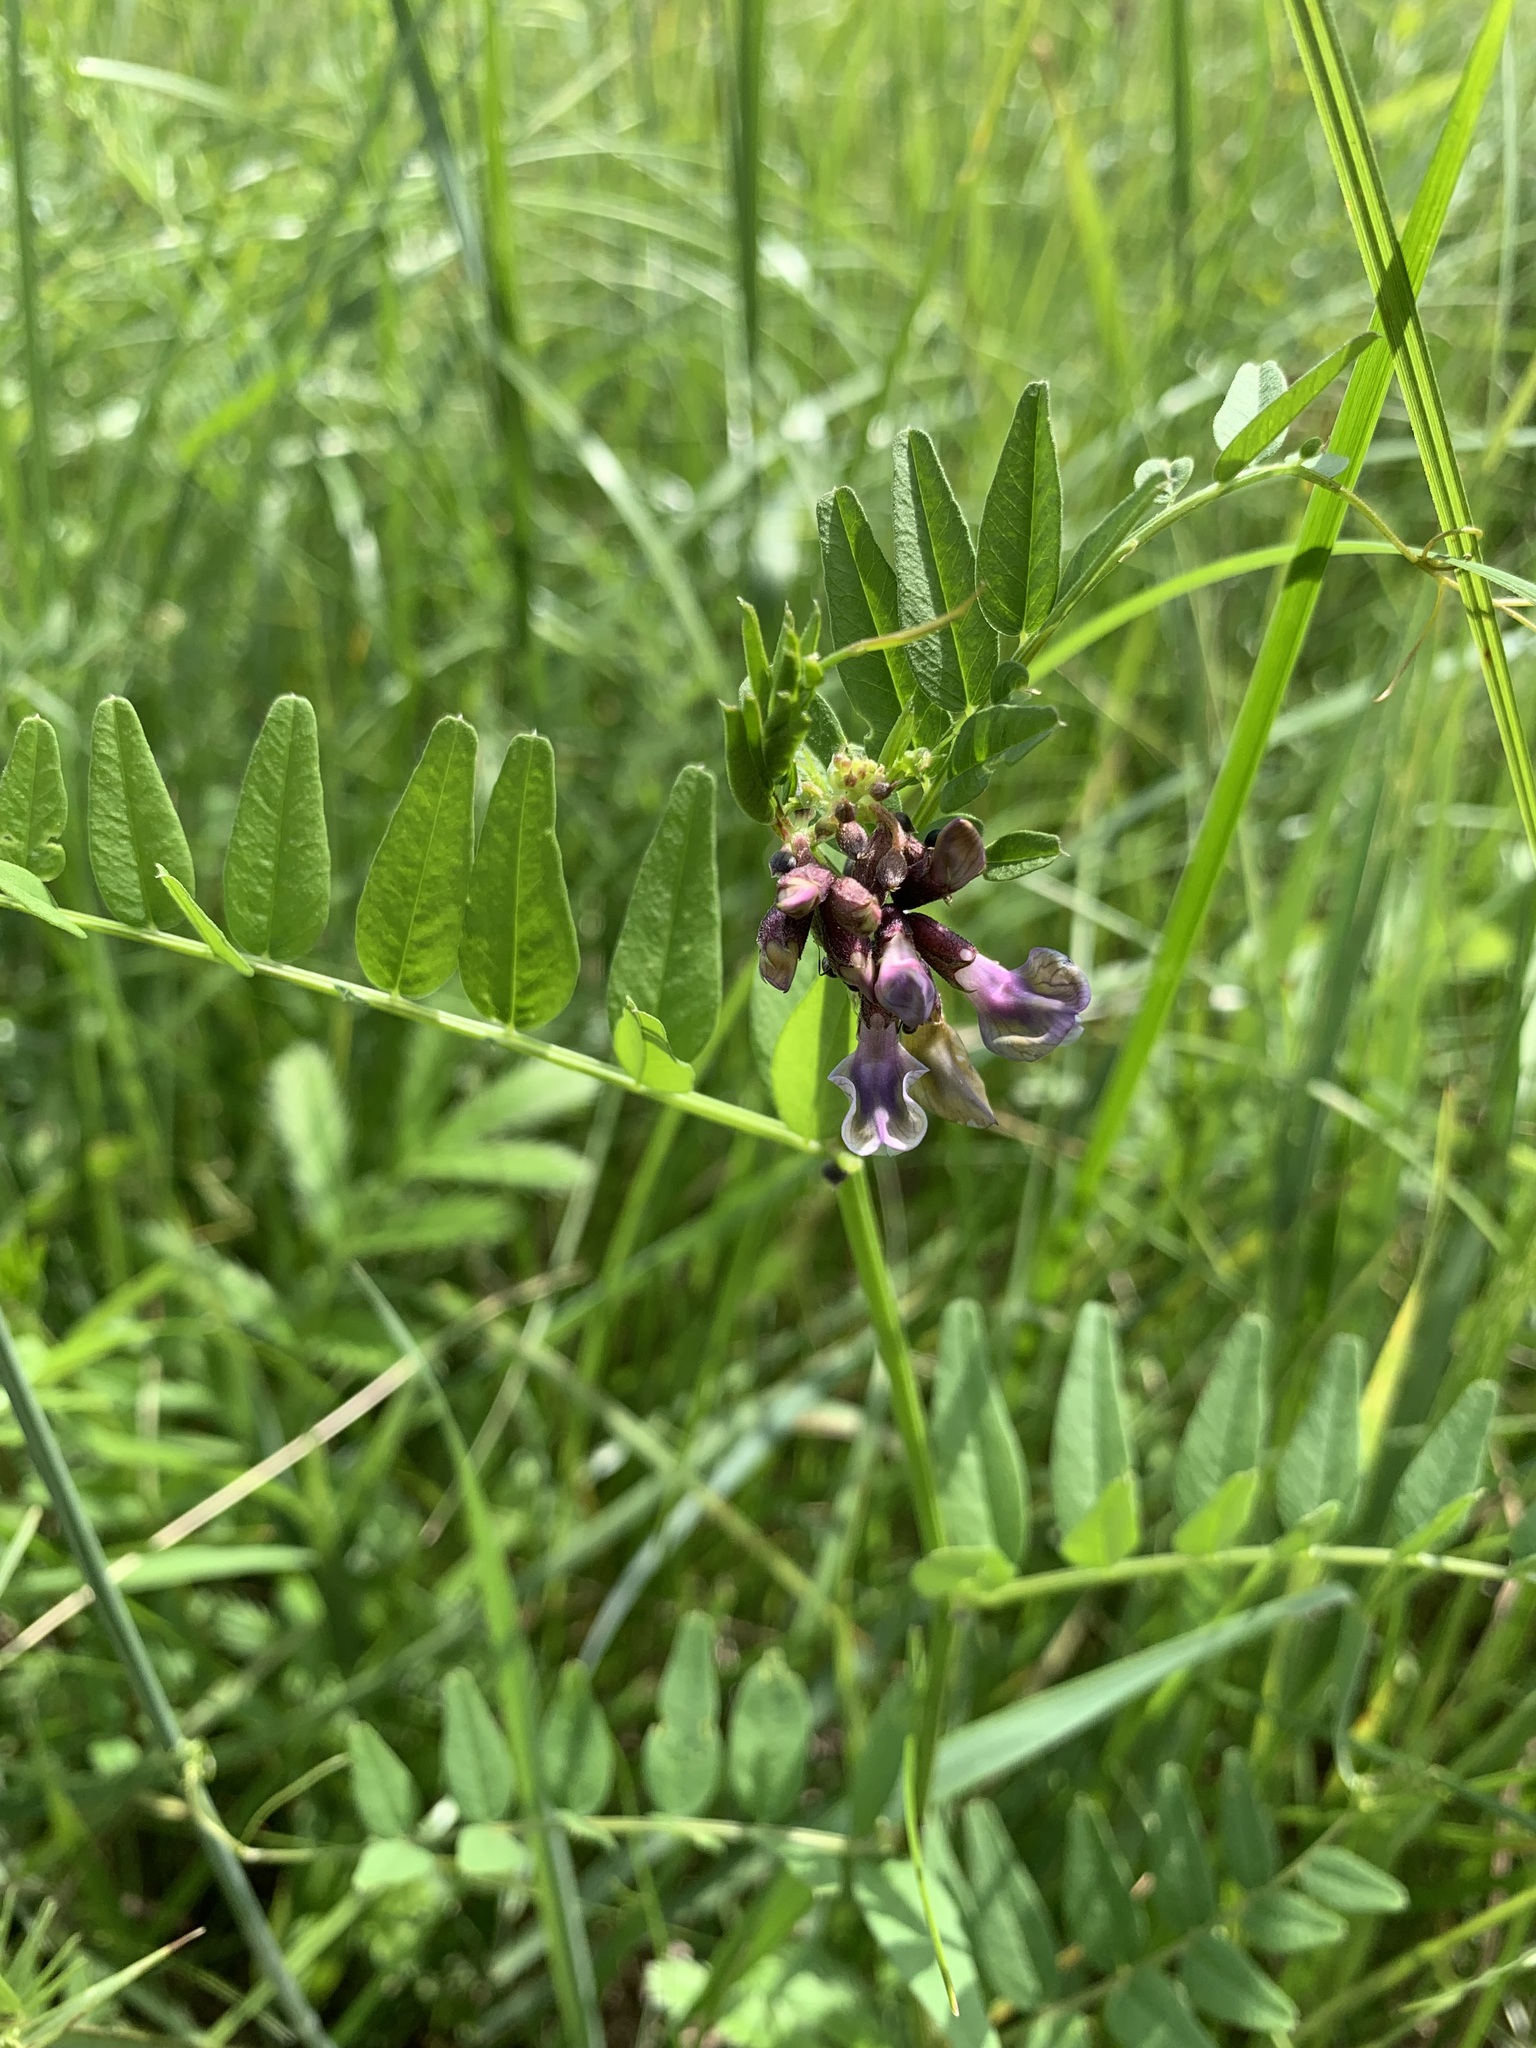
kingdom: Plantae
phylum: Tracheophyta
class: Magnoliopsida
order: Fabales
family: Fabaceae
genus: Vicia
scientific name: Vicia sepium
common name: Bush vetch
